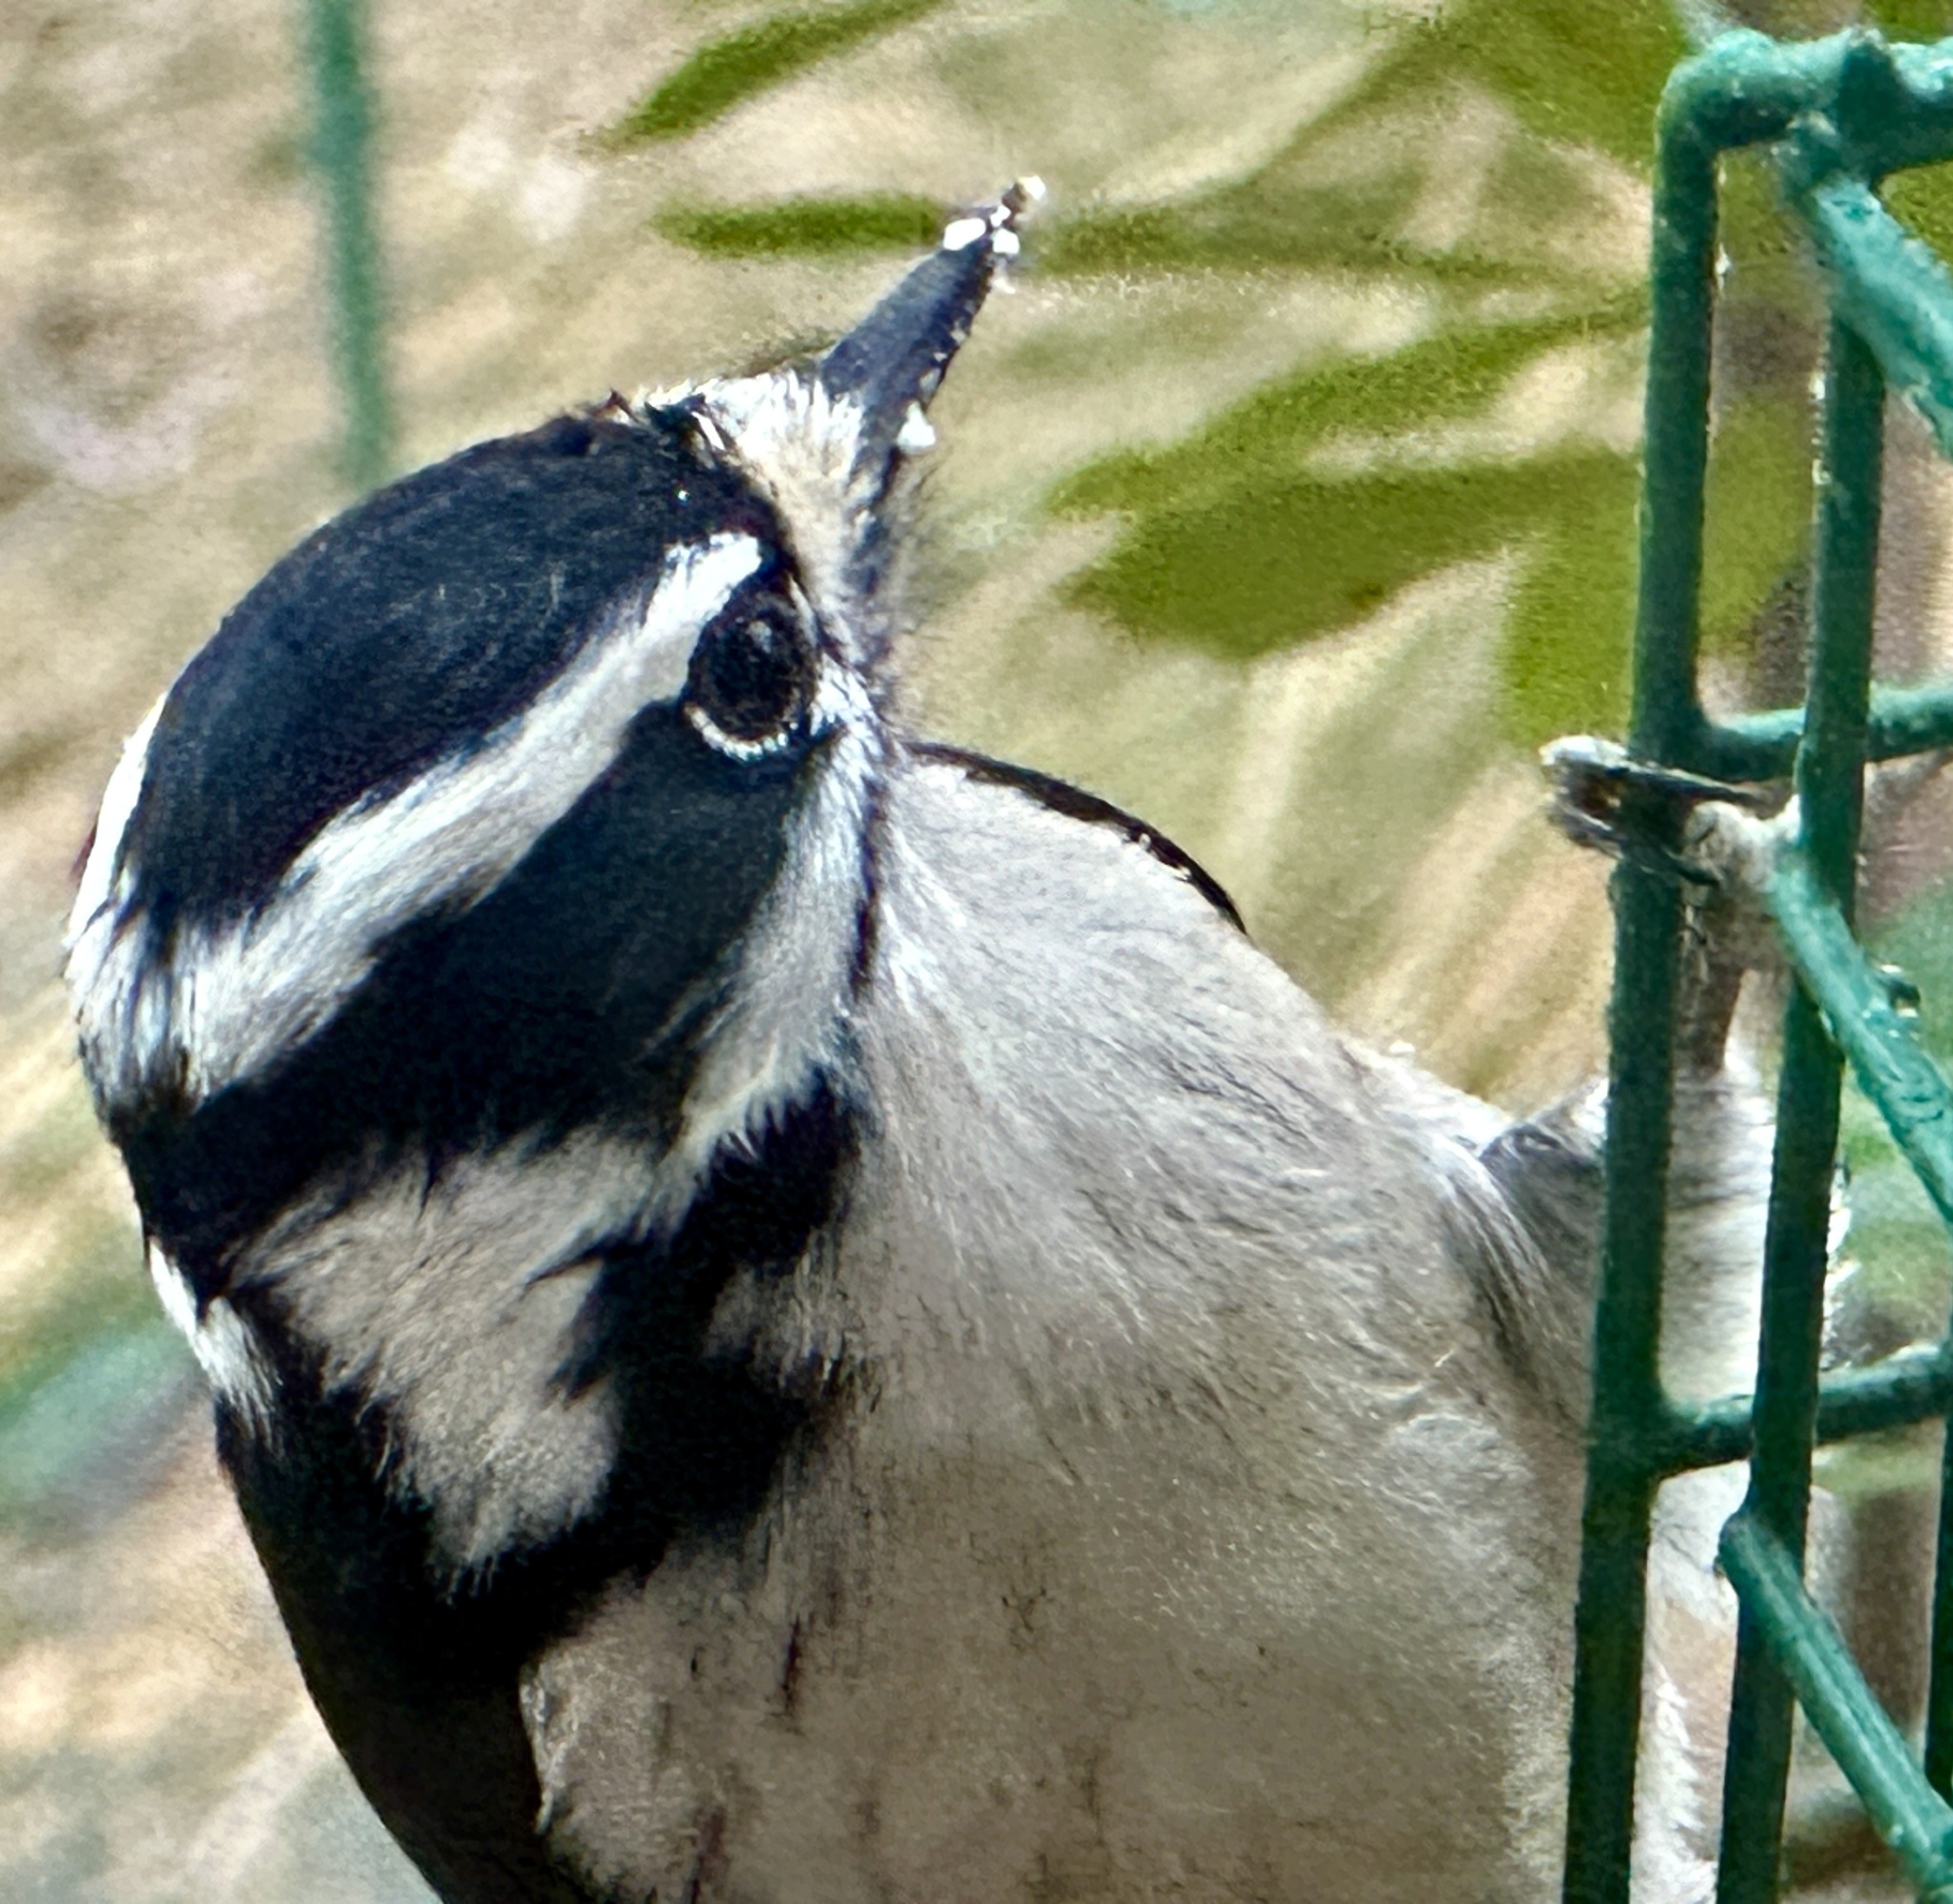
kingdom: Animalia
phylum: Chordata
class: Aves
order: Piciformes
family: Picidae
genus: Dryobates
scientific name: Dryobates pubescens
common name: Downy woodpecker
